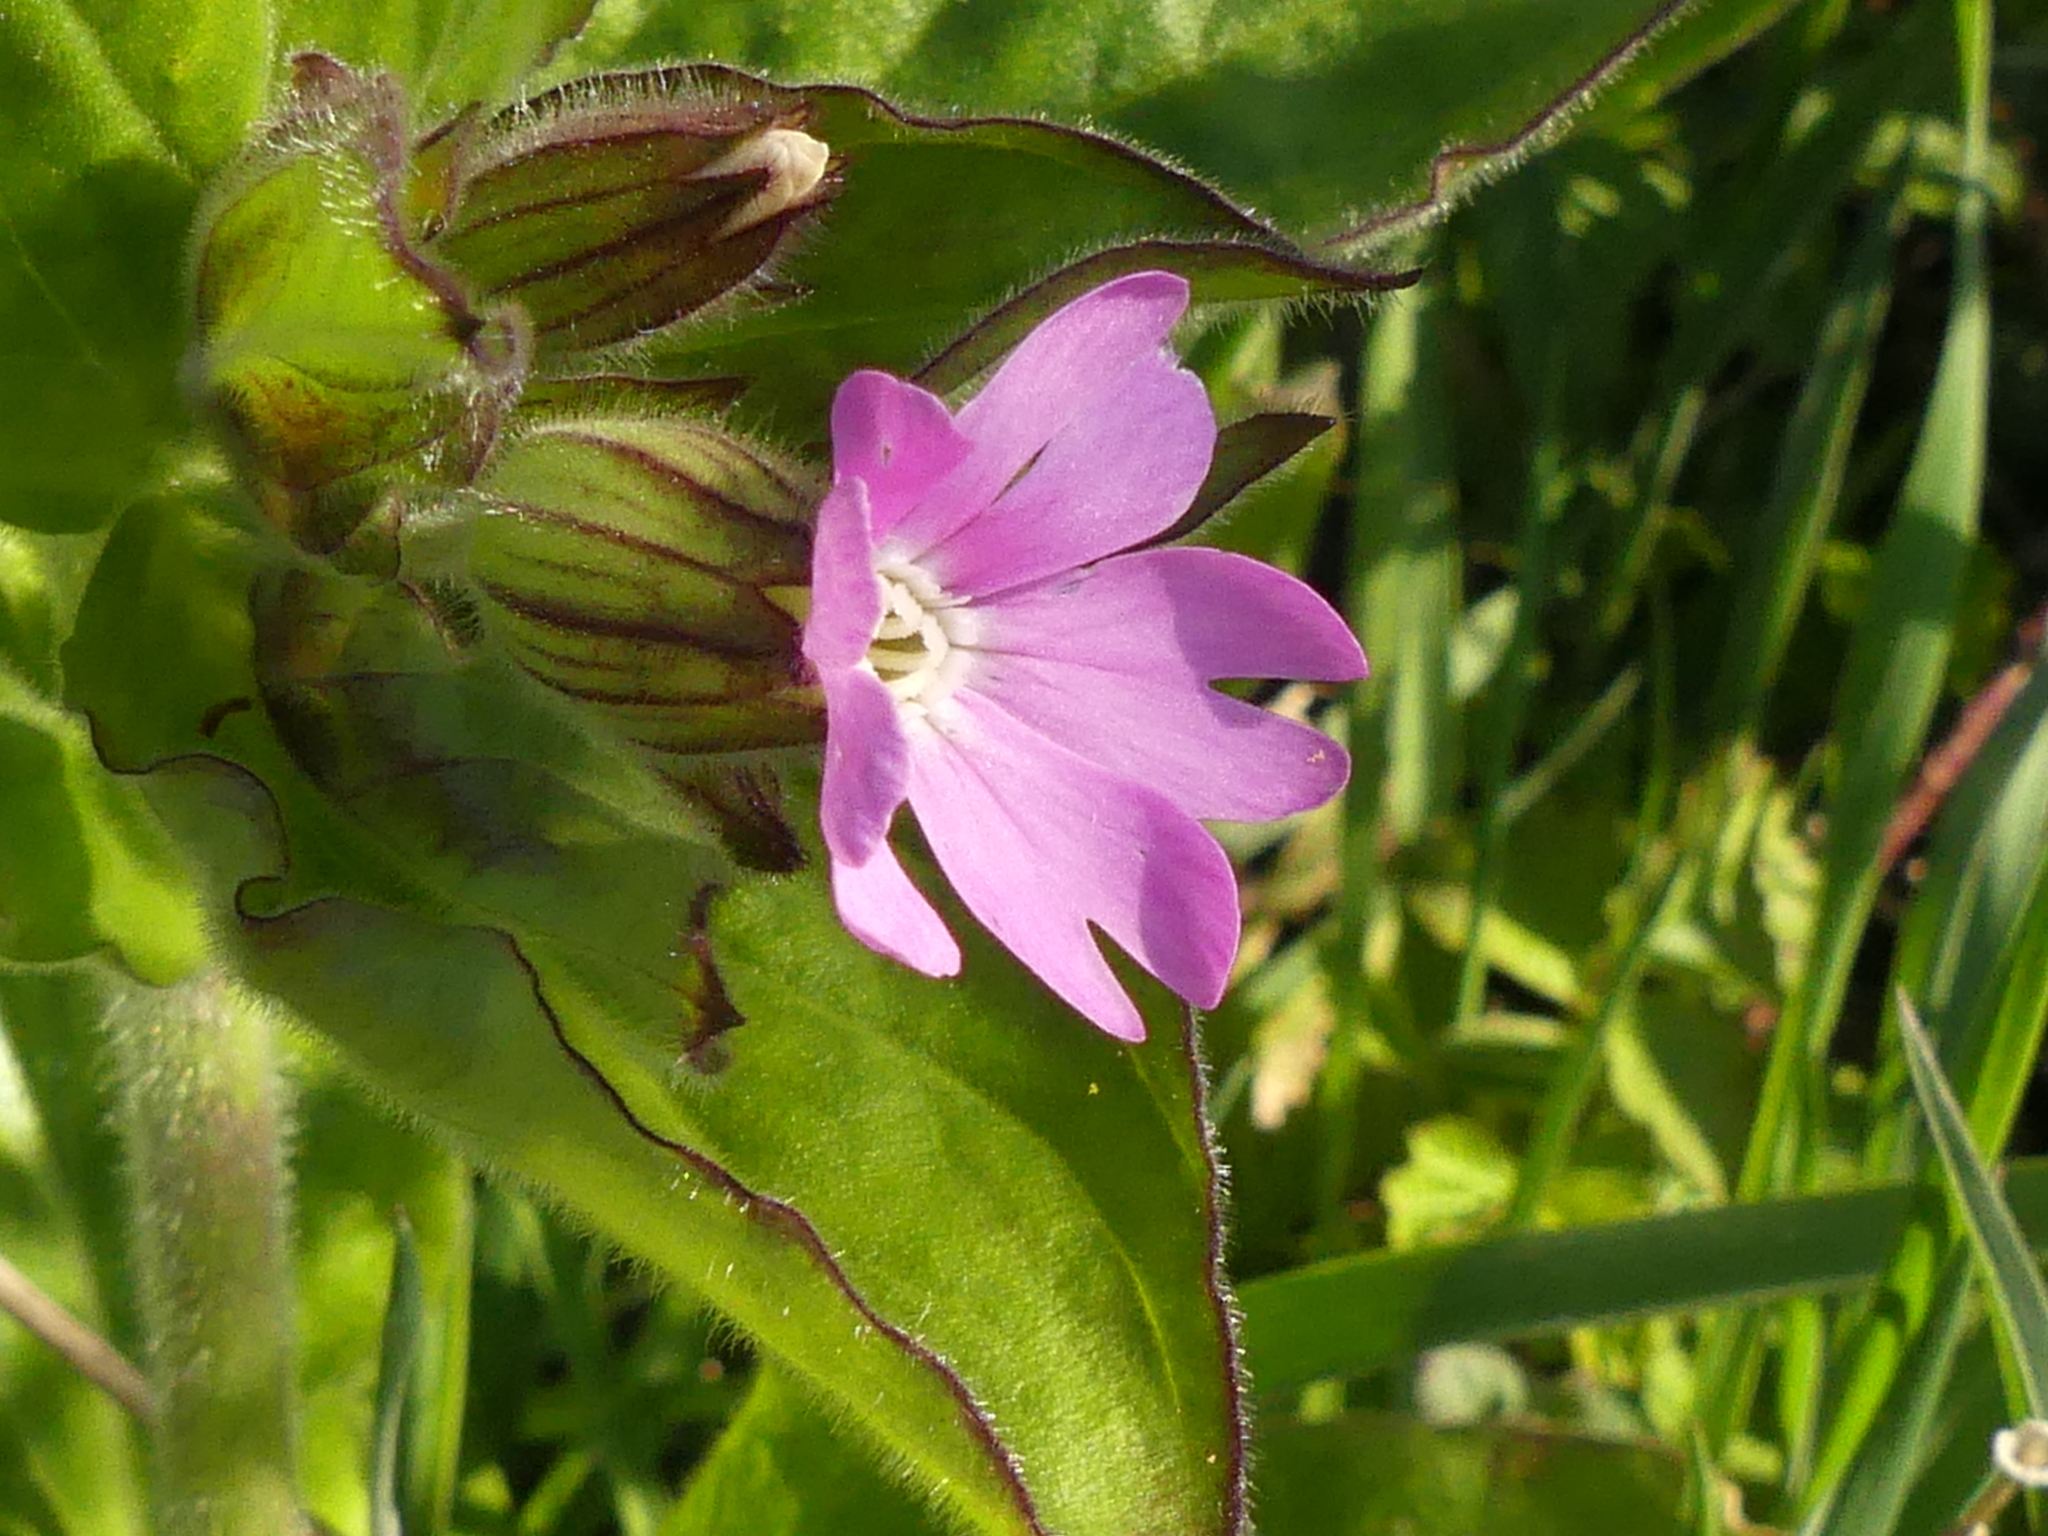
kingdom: Plantae
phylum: Tracheophyta
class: Magnoliopsida
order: Caryophyllales
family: Caryophyllaceae
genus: Silene
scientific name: Silene dioica
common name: Red campion
